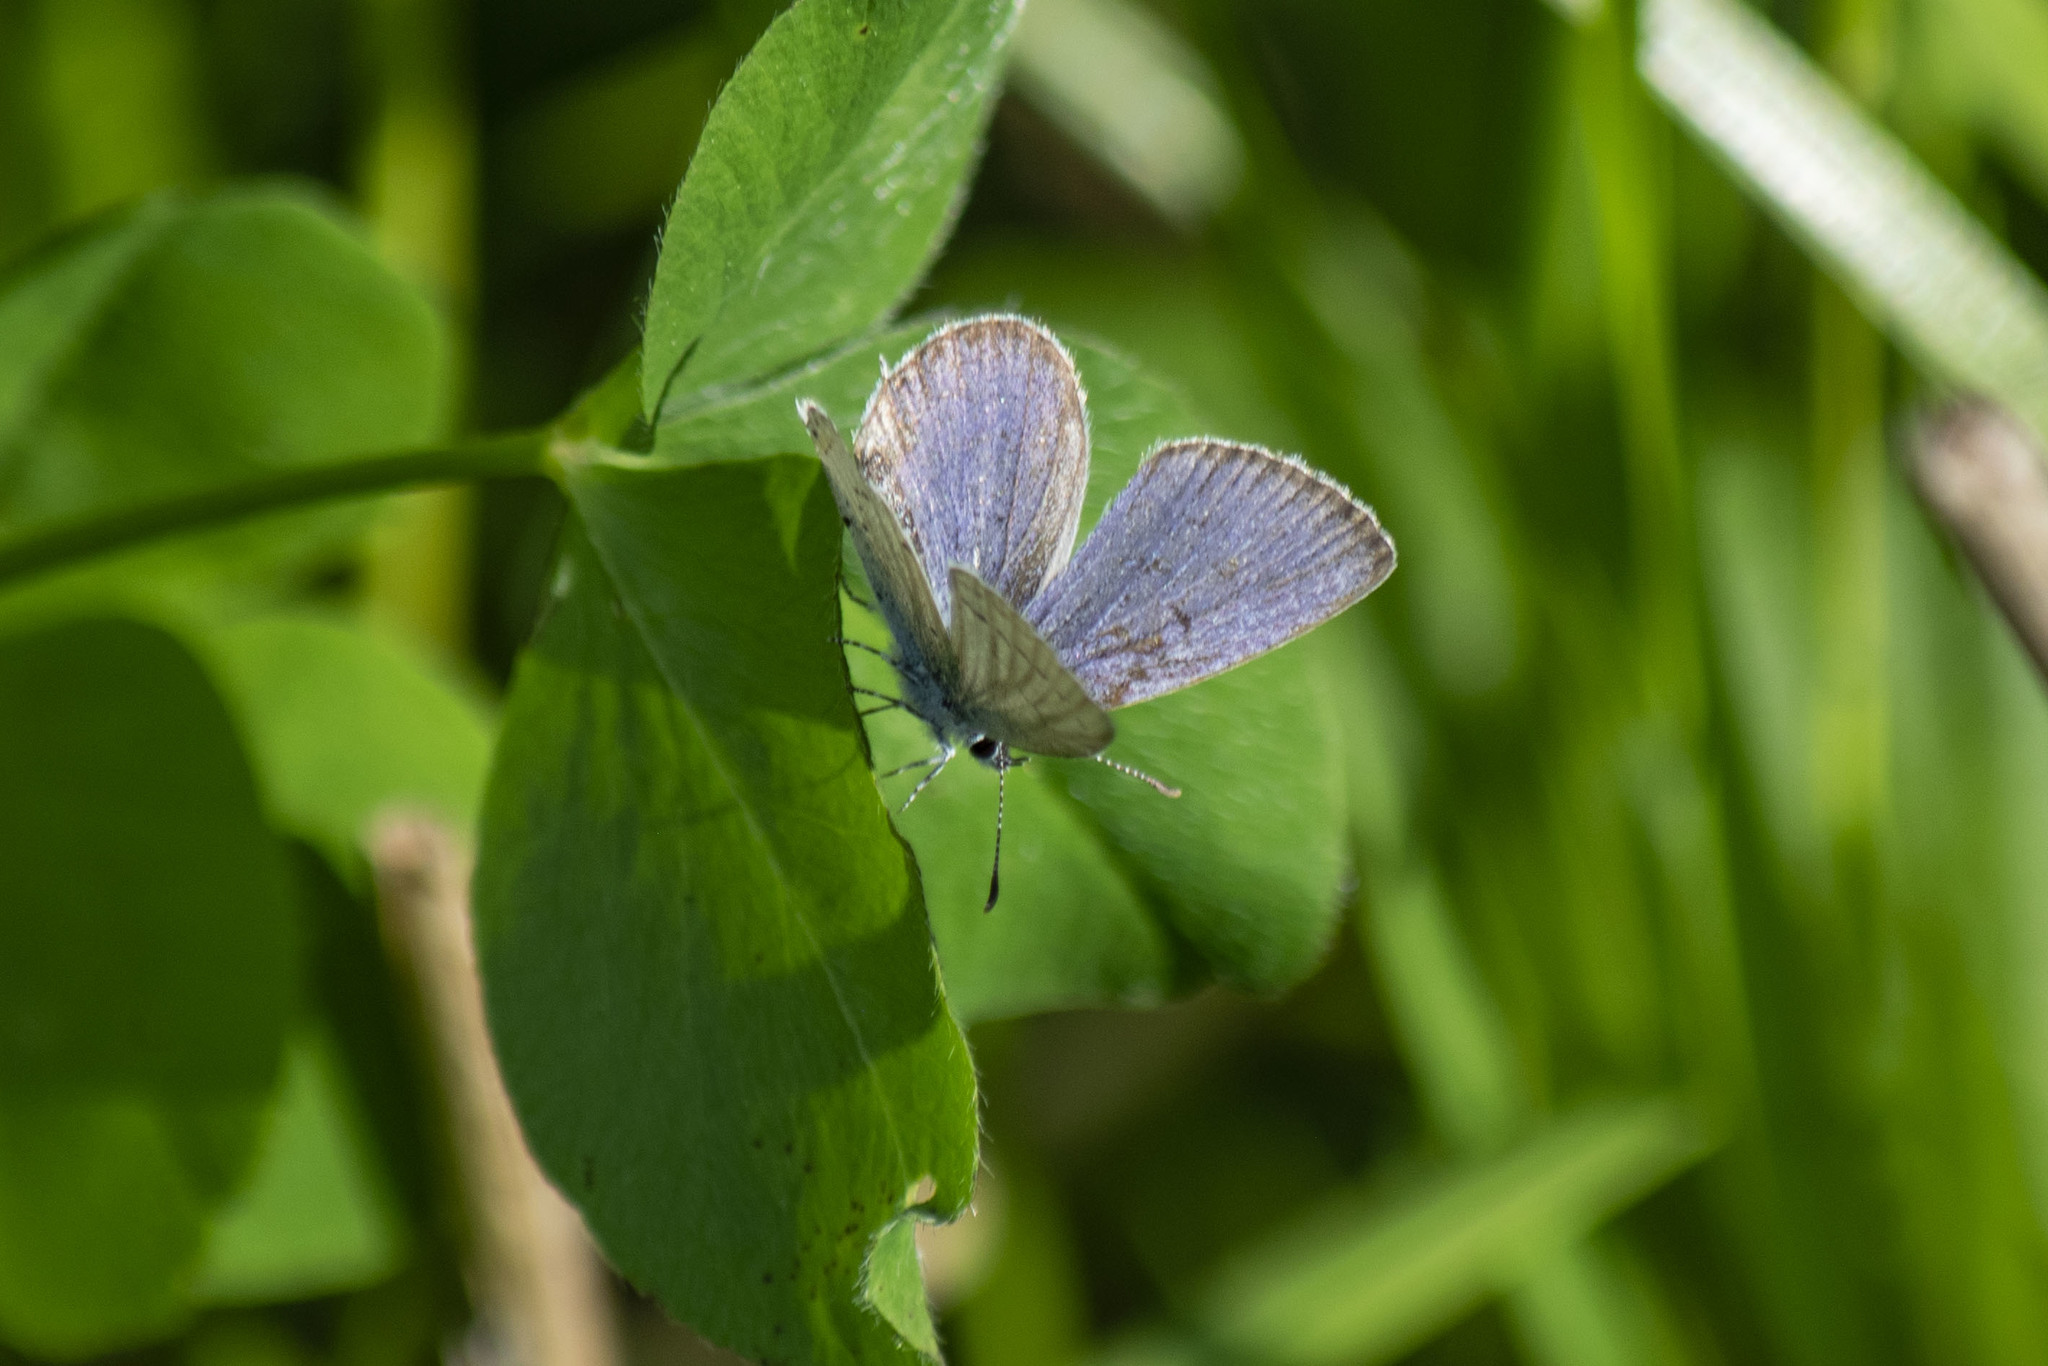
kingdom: Animalia
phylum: Arthropoda
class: Insecta
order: Lepidoptera
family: Lycaenidae
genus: Elkalyce
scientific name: Elkalyce argiades
